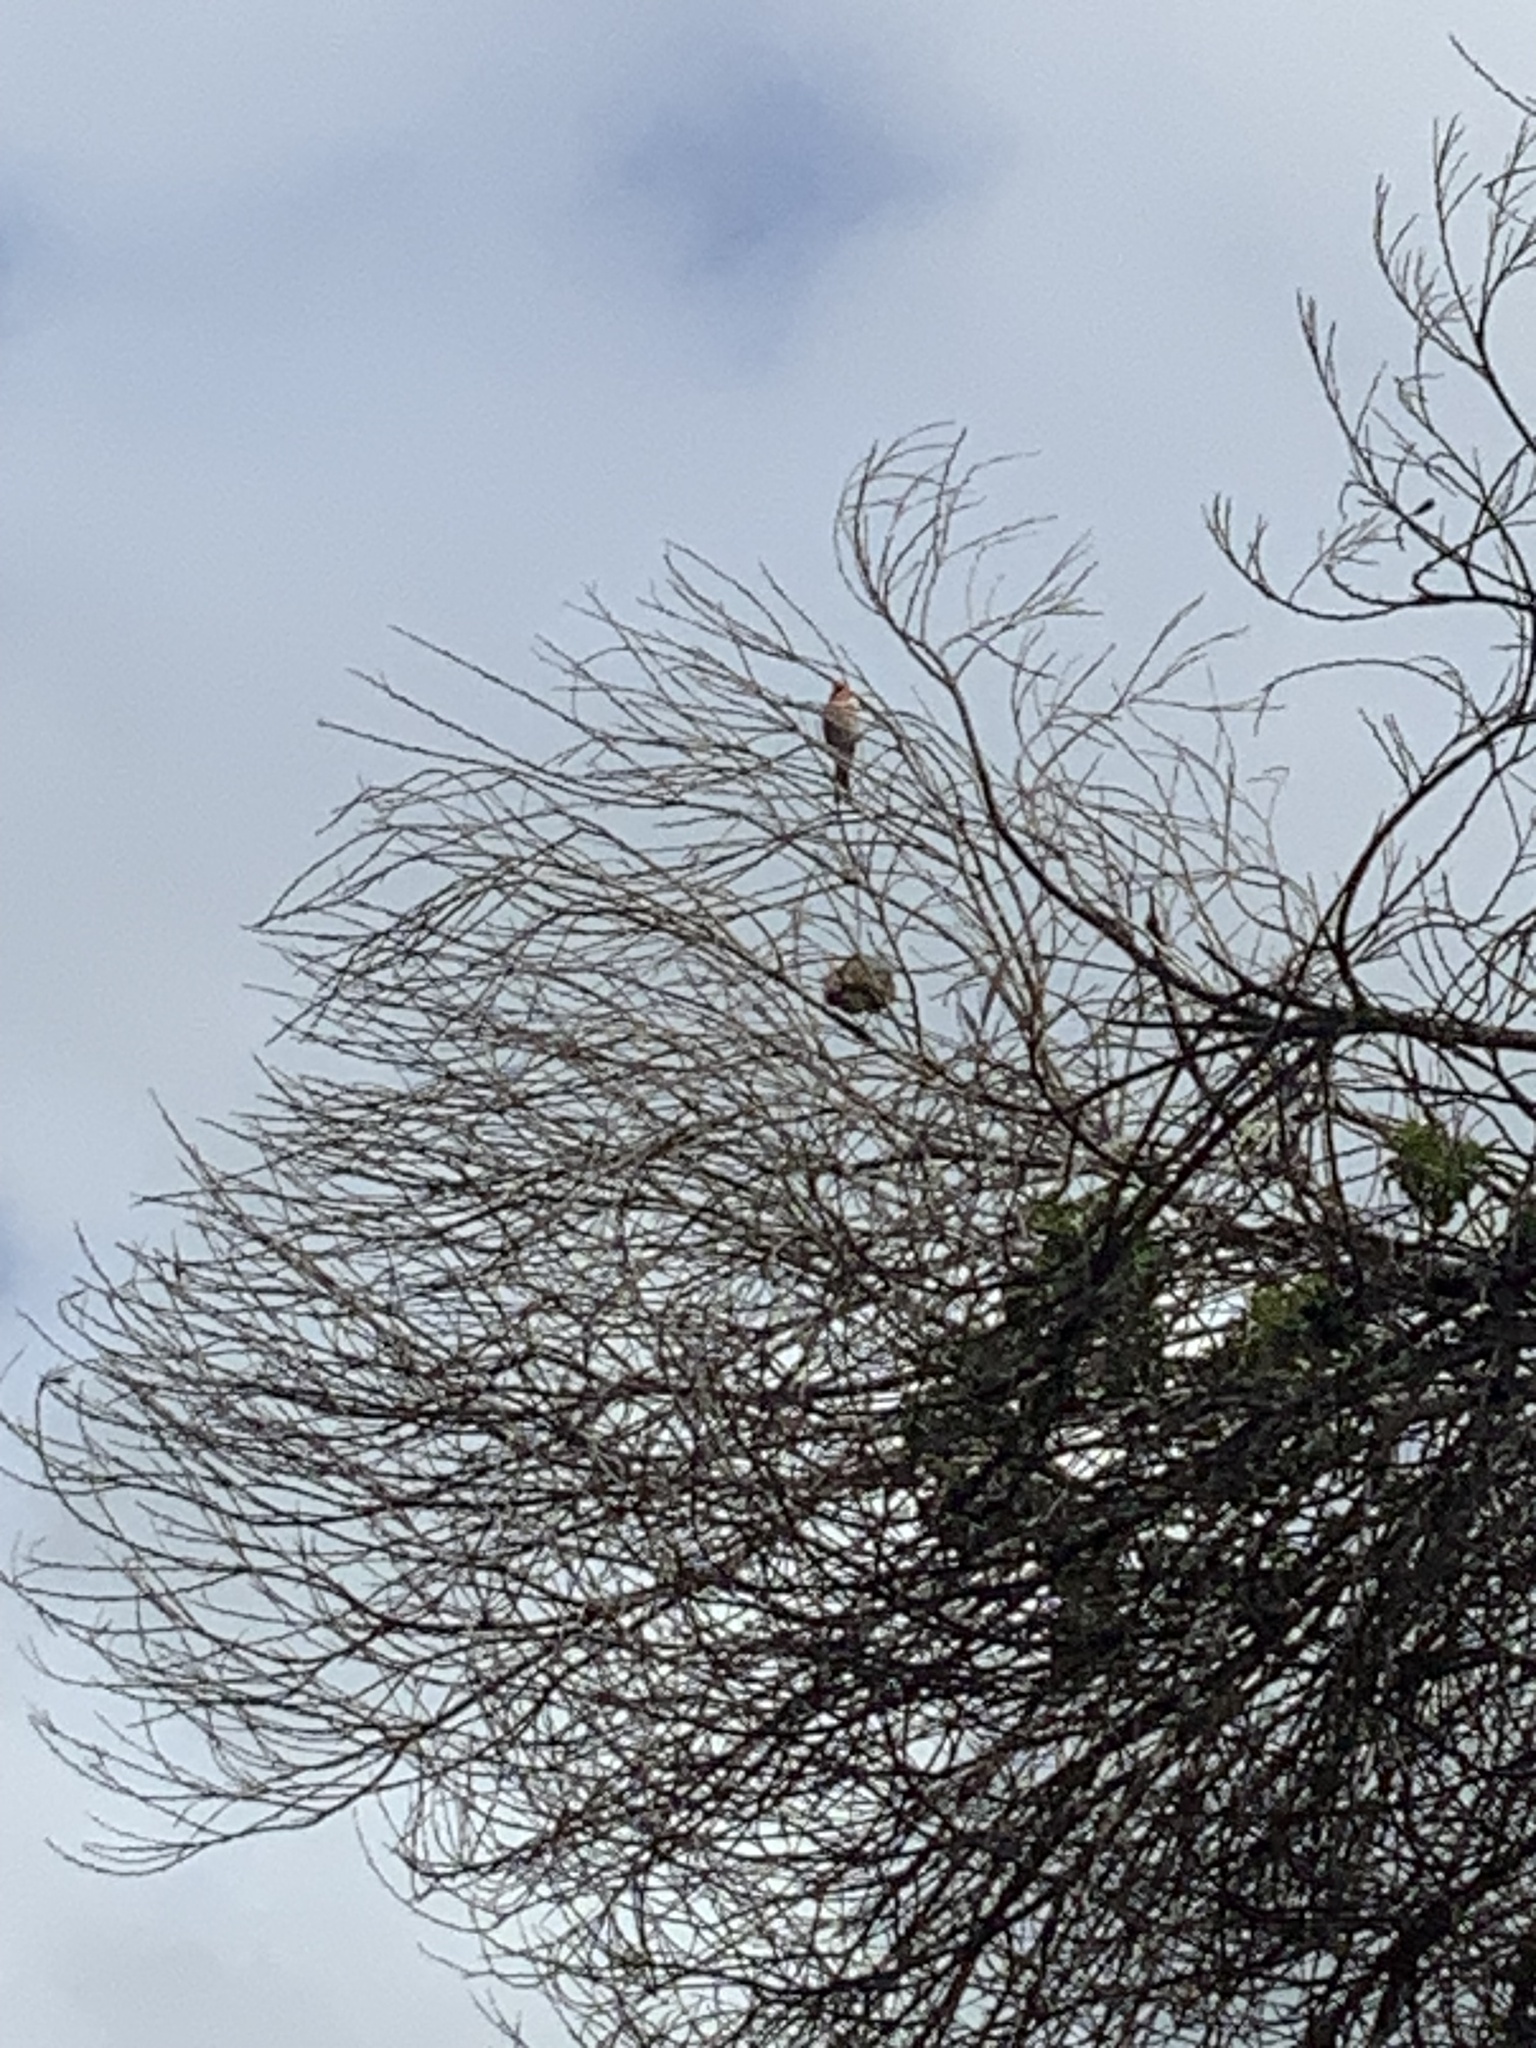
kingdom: Animalia
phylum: Chordata
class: Aves
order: Passeriformes
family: Fringillidae
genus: Haemorhous
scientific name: Haemorhous mexicanus
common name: House finch
